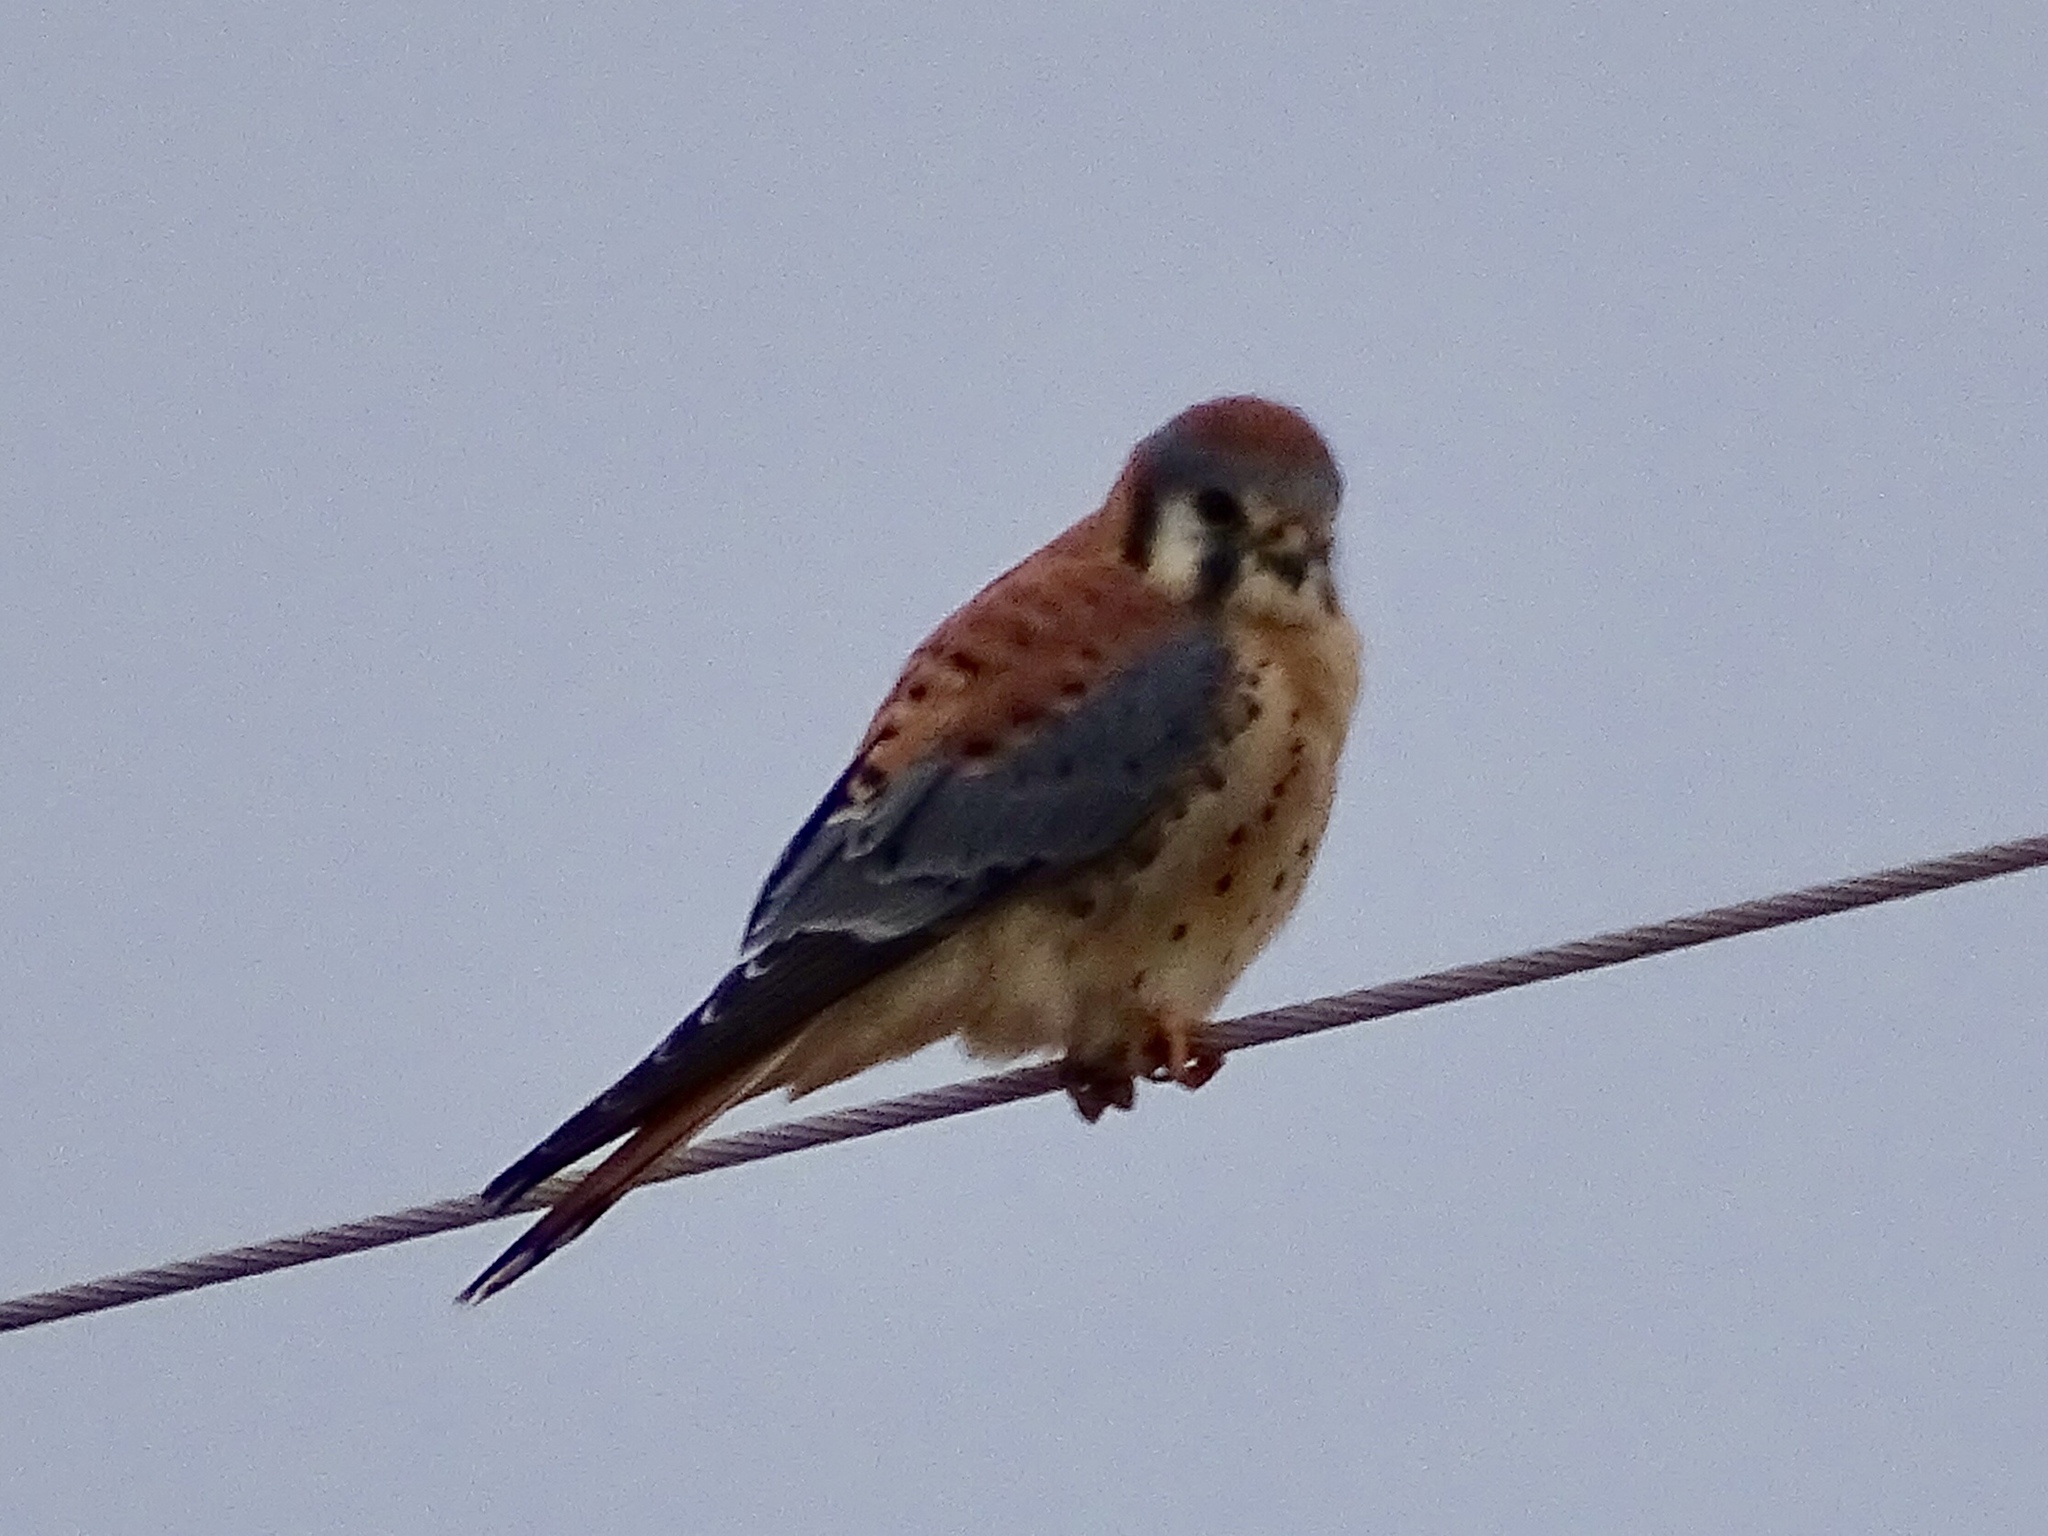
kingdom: Animalia
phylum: Chordata
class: Aves
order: Falconiformes
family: Falconidae
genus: Falco
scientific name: Falco sparverius
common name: American kestrel
